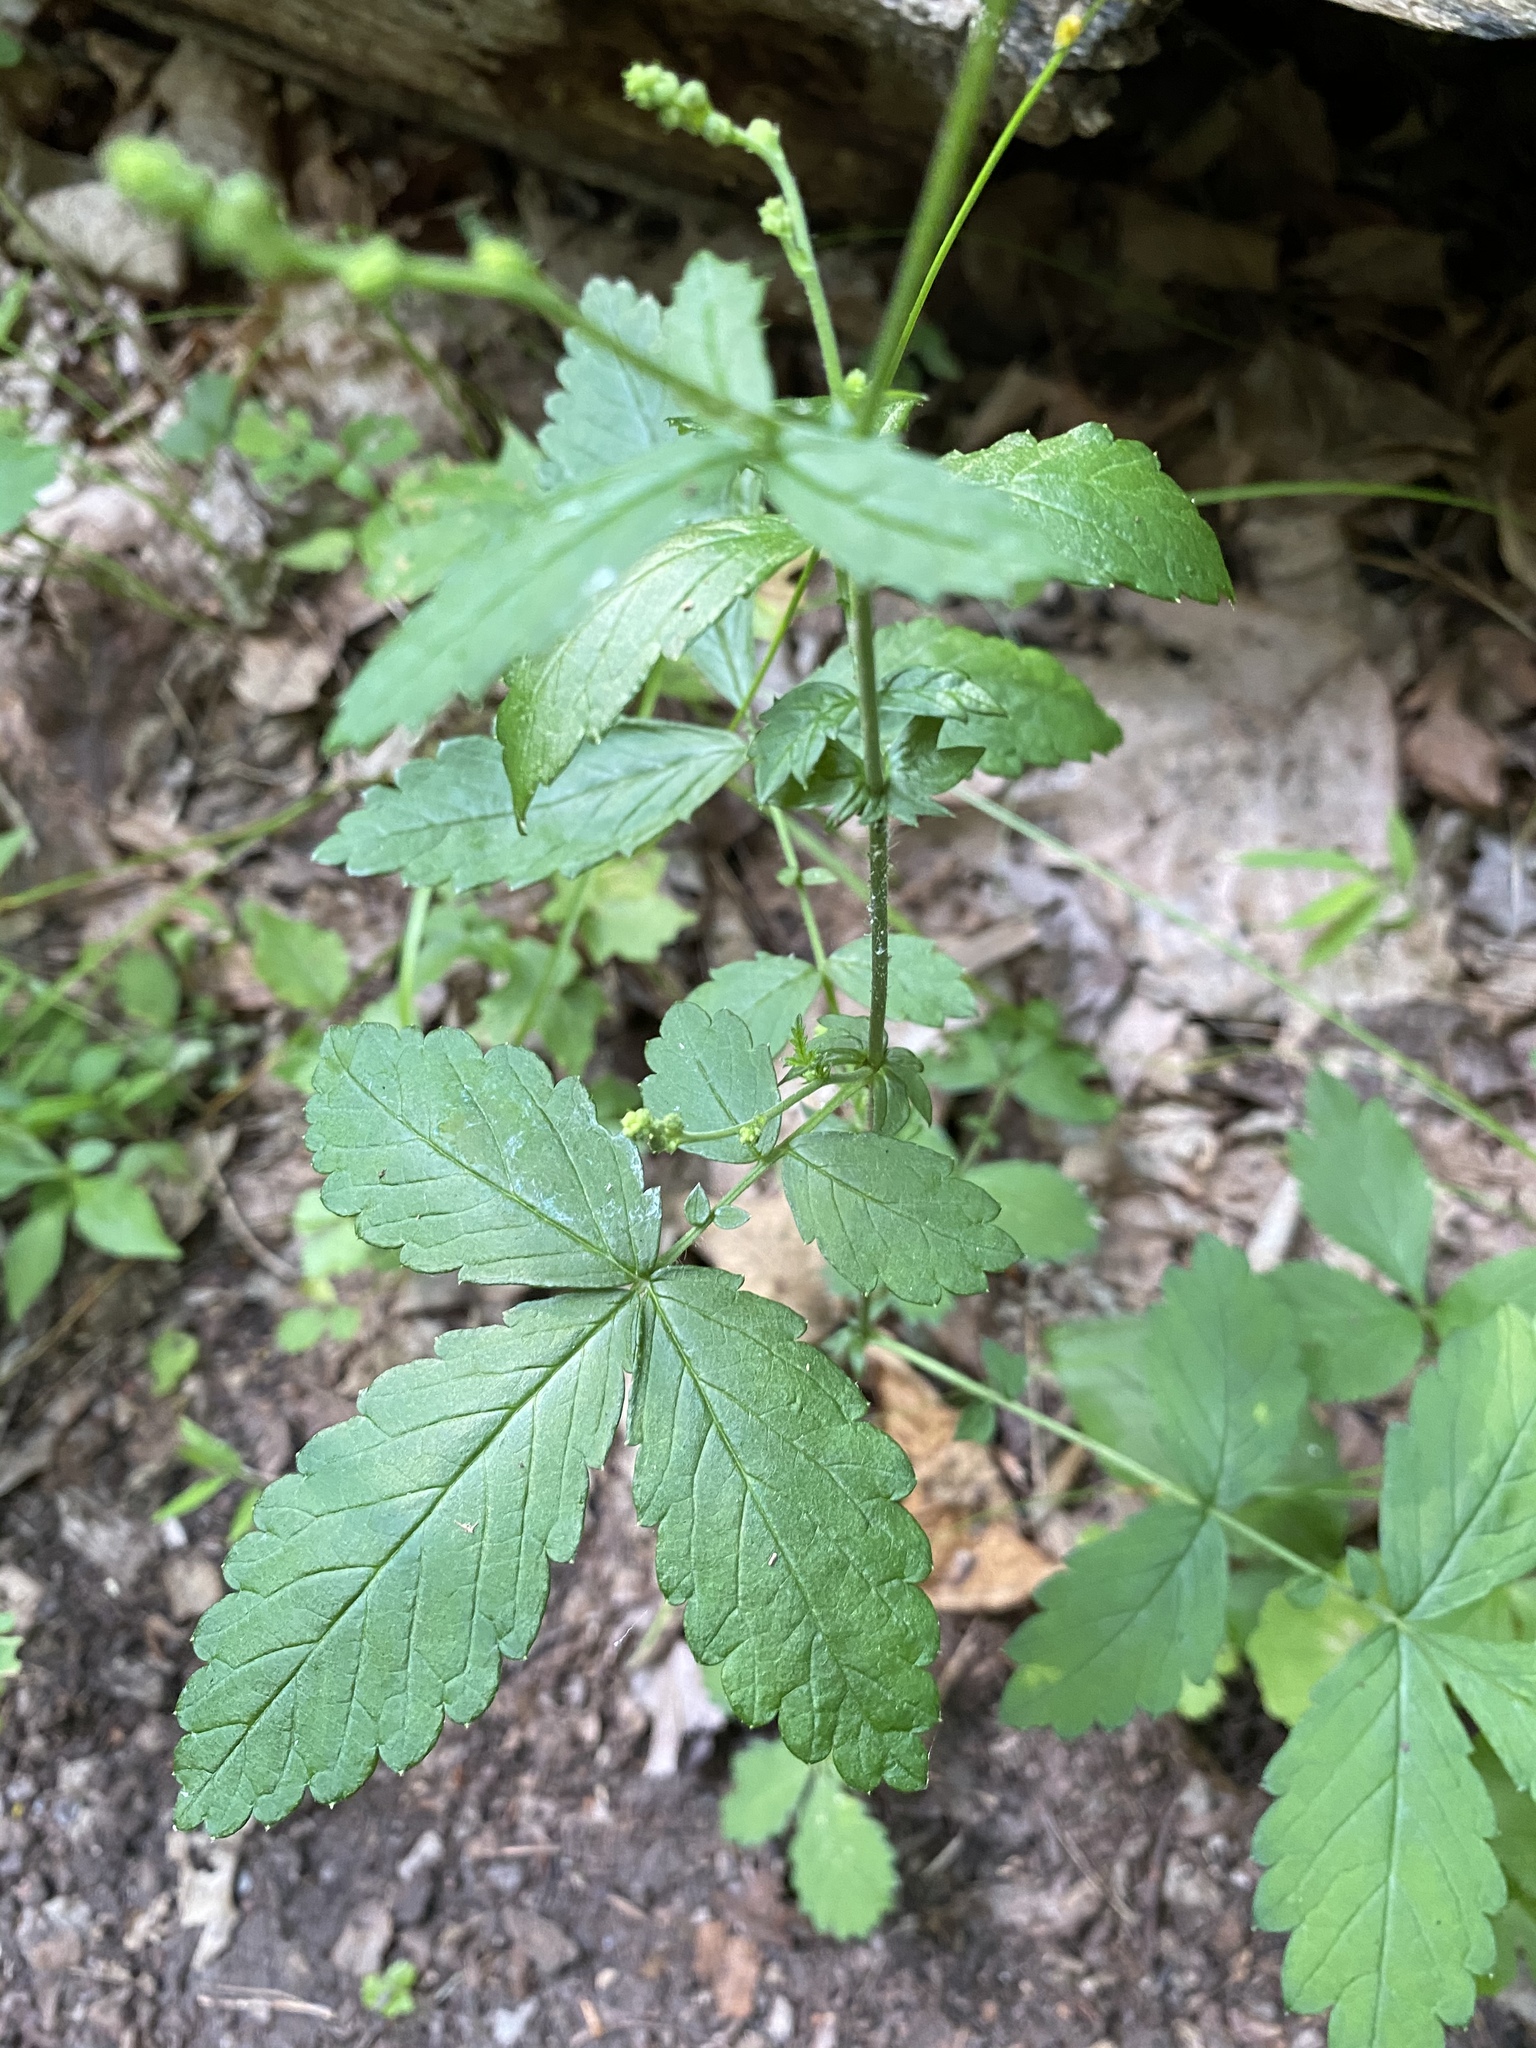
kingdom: Plantae
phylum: Tracheophyta
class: Magnoliopsida
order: Rosales
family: Rosaceae
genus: Agrimonia
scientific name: Agrimonia gryposepala
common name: Common agrimony
